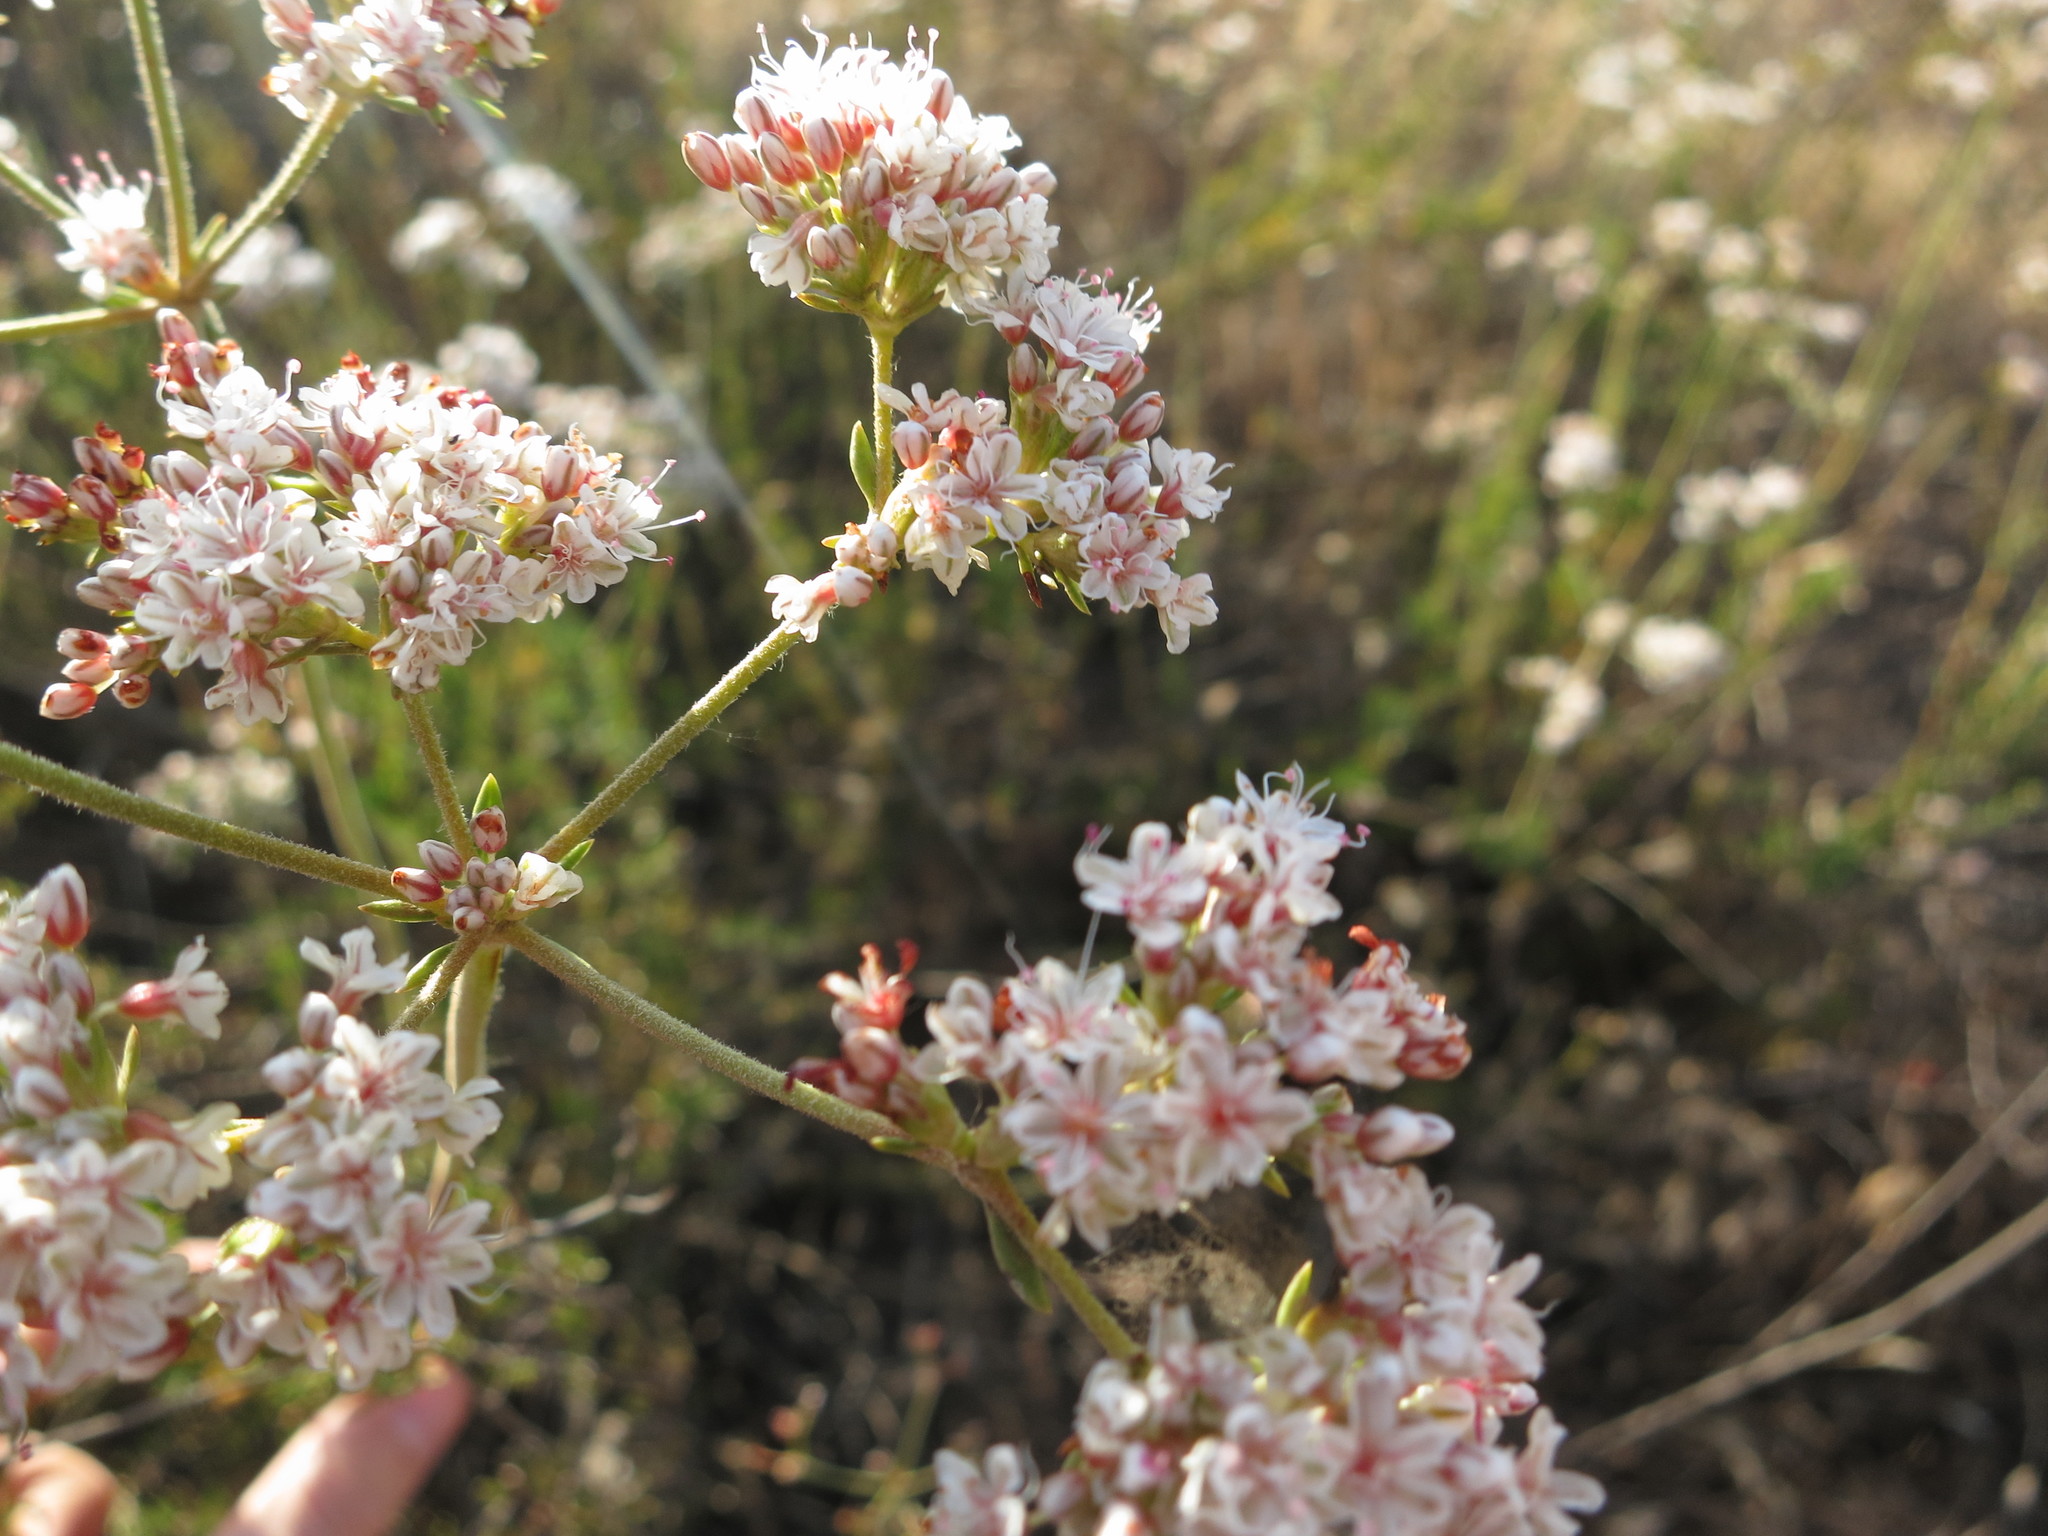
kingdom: Plantae
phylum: Tracheophyta
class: Magnoliopsida
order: Caryophyllales
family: Polygonaceae
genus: Eriogonum
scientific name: Eriogonum fasciculatum
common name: California wild buckwheat
